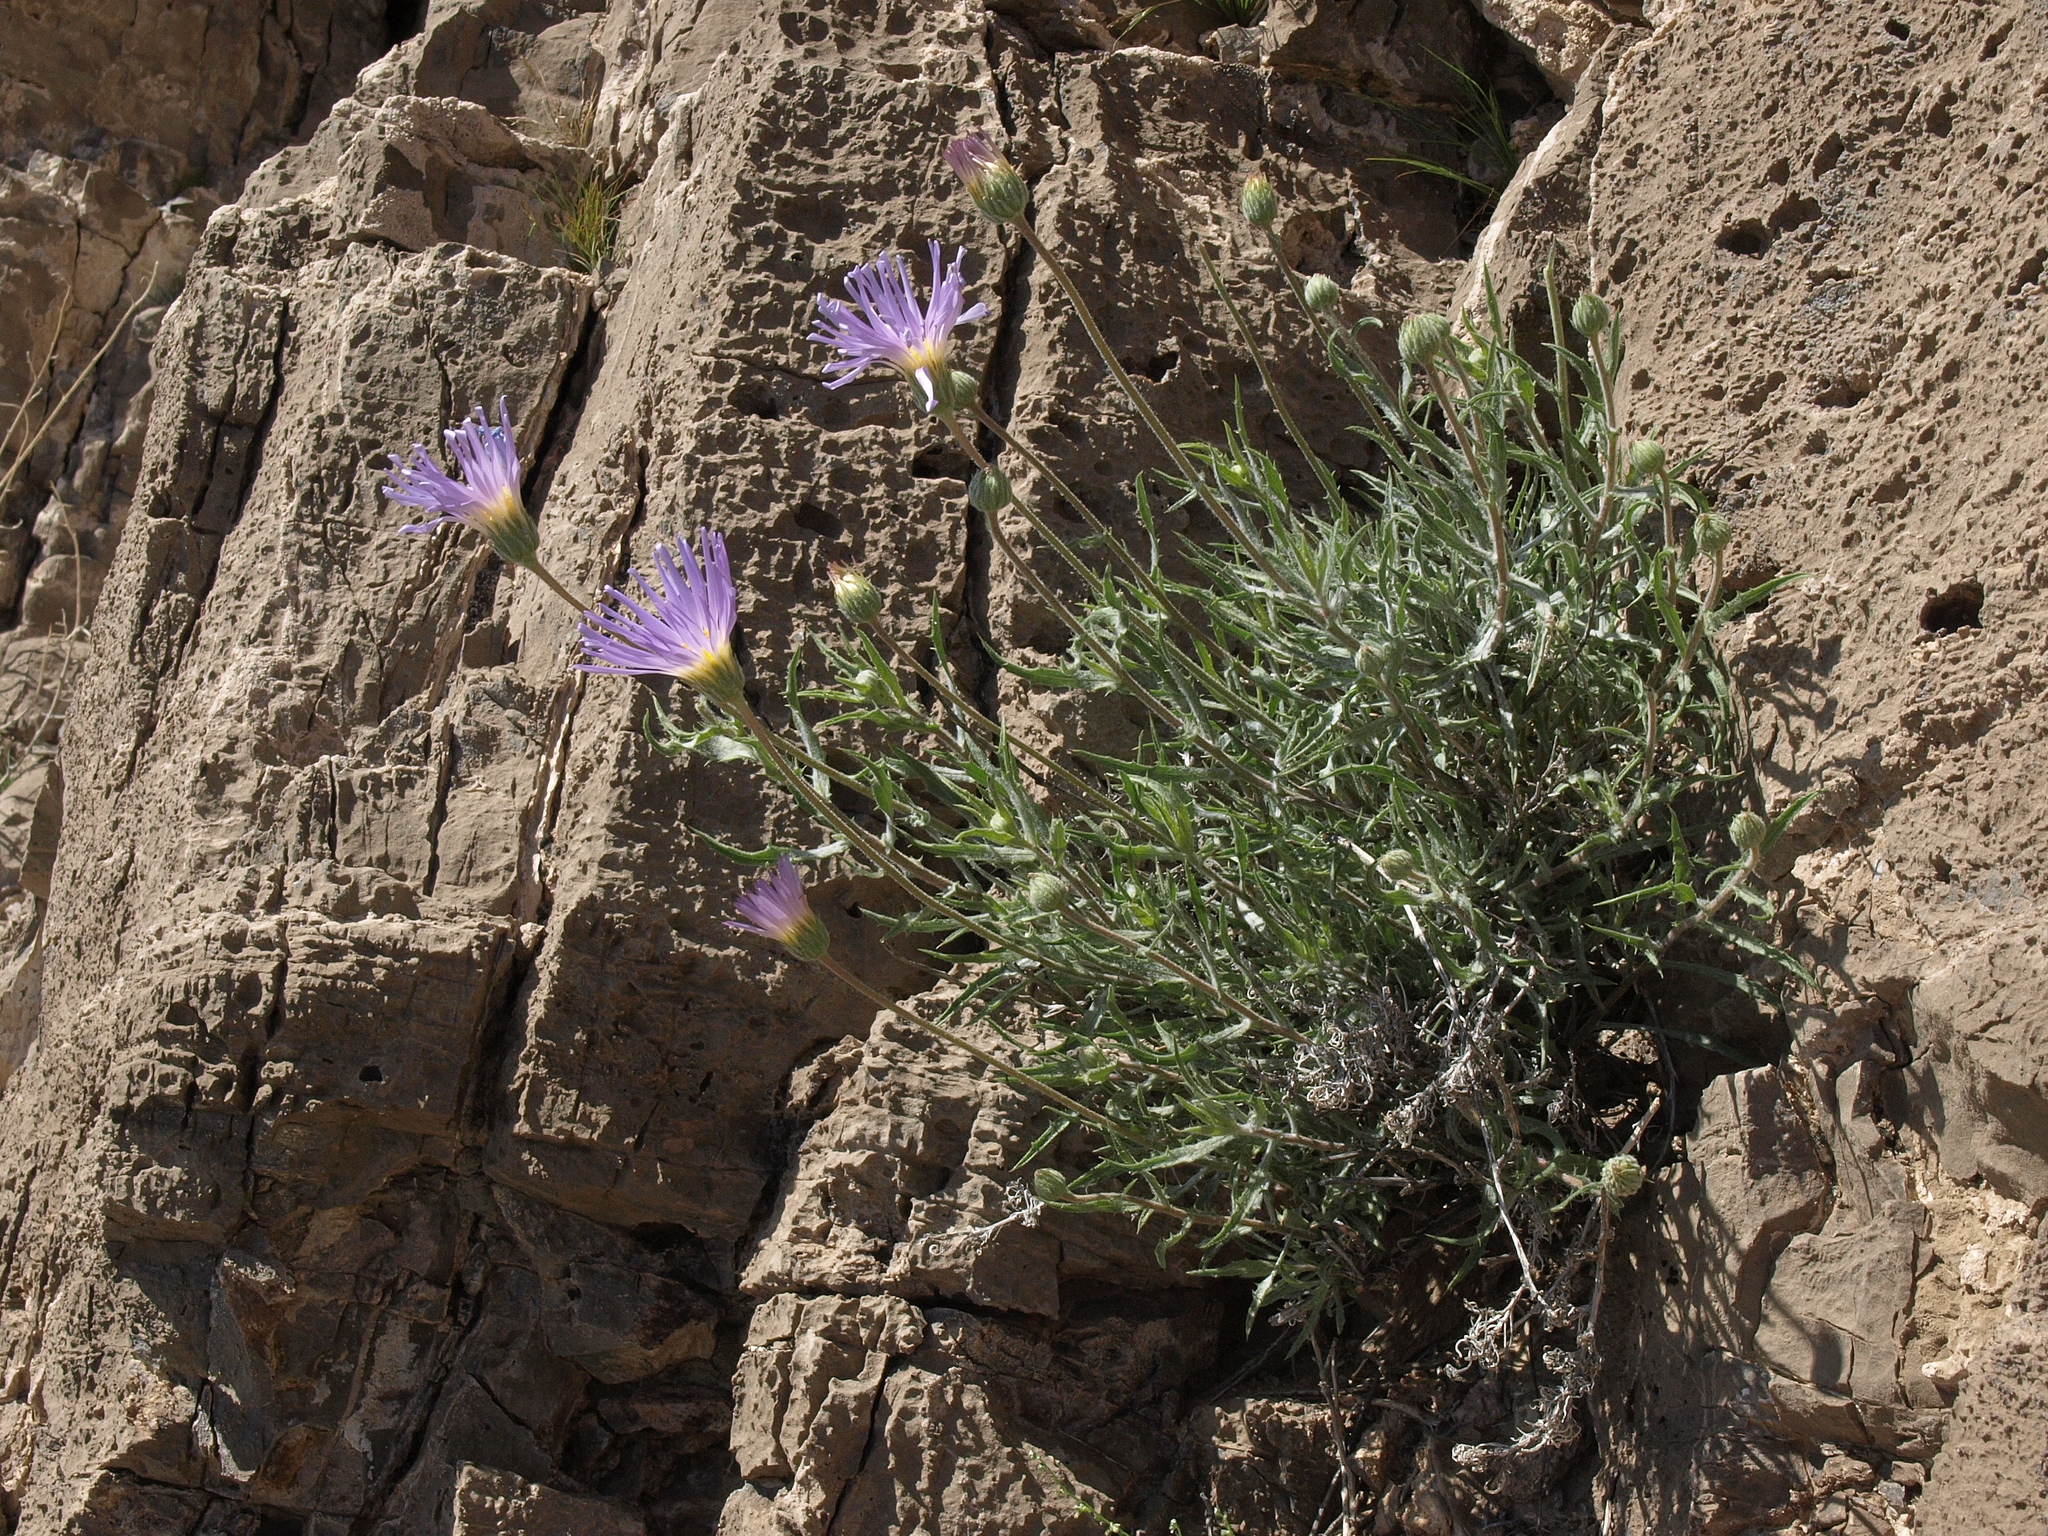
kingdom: Plantae
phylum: Tracheophyta
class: Magnoliopsida
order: Asterales
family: Asteraceae
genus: Xylorhiza
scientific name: Xylorhiza tortifolia
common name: Hurt-leaf woody-aster
